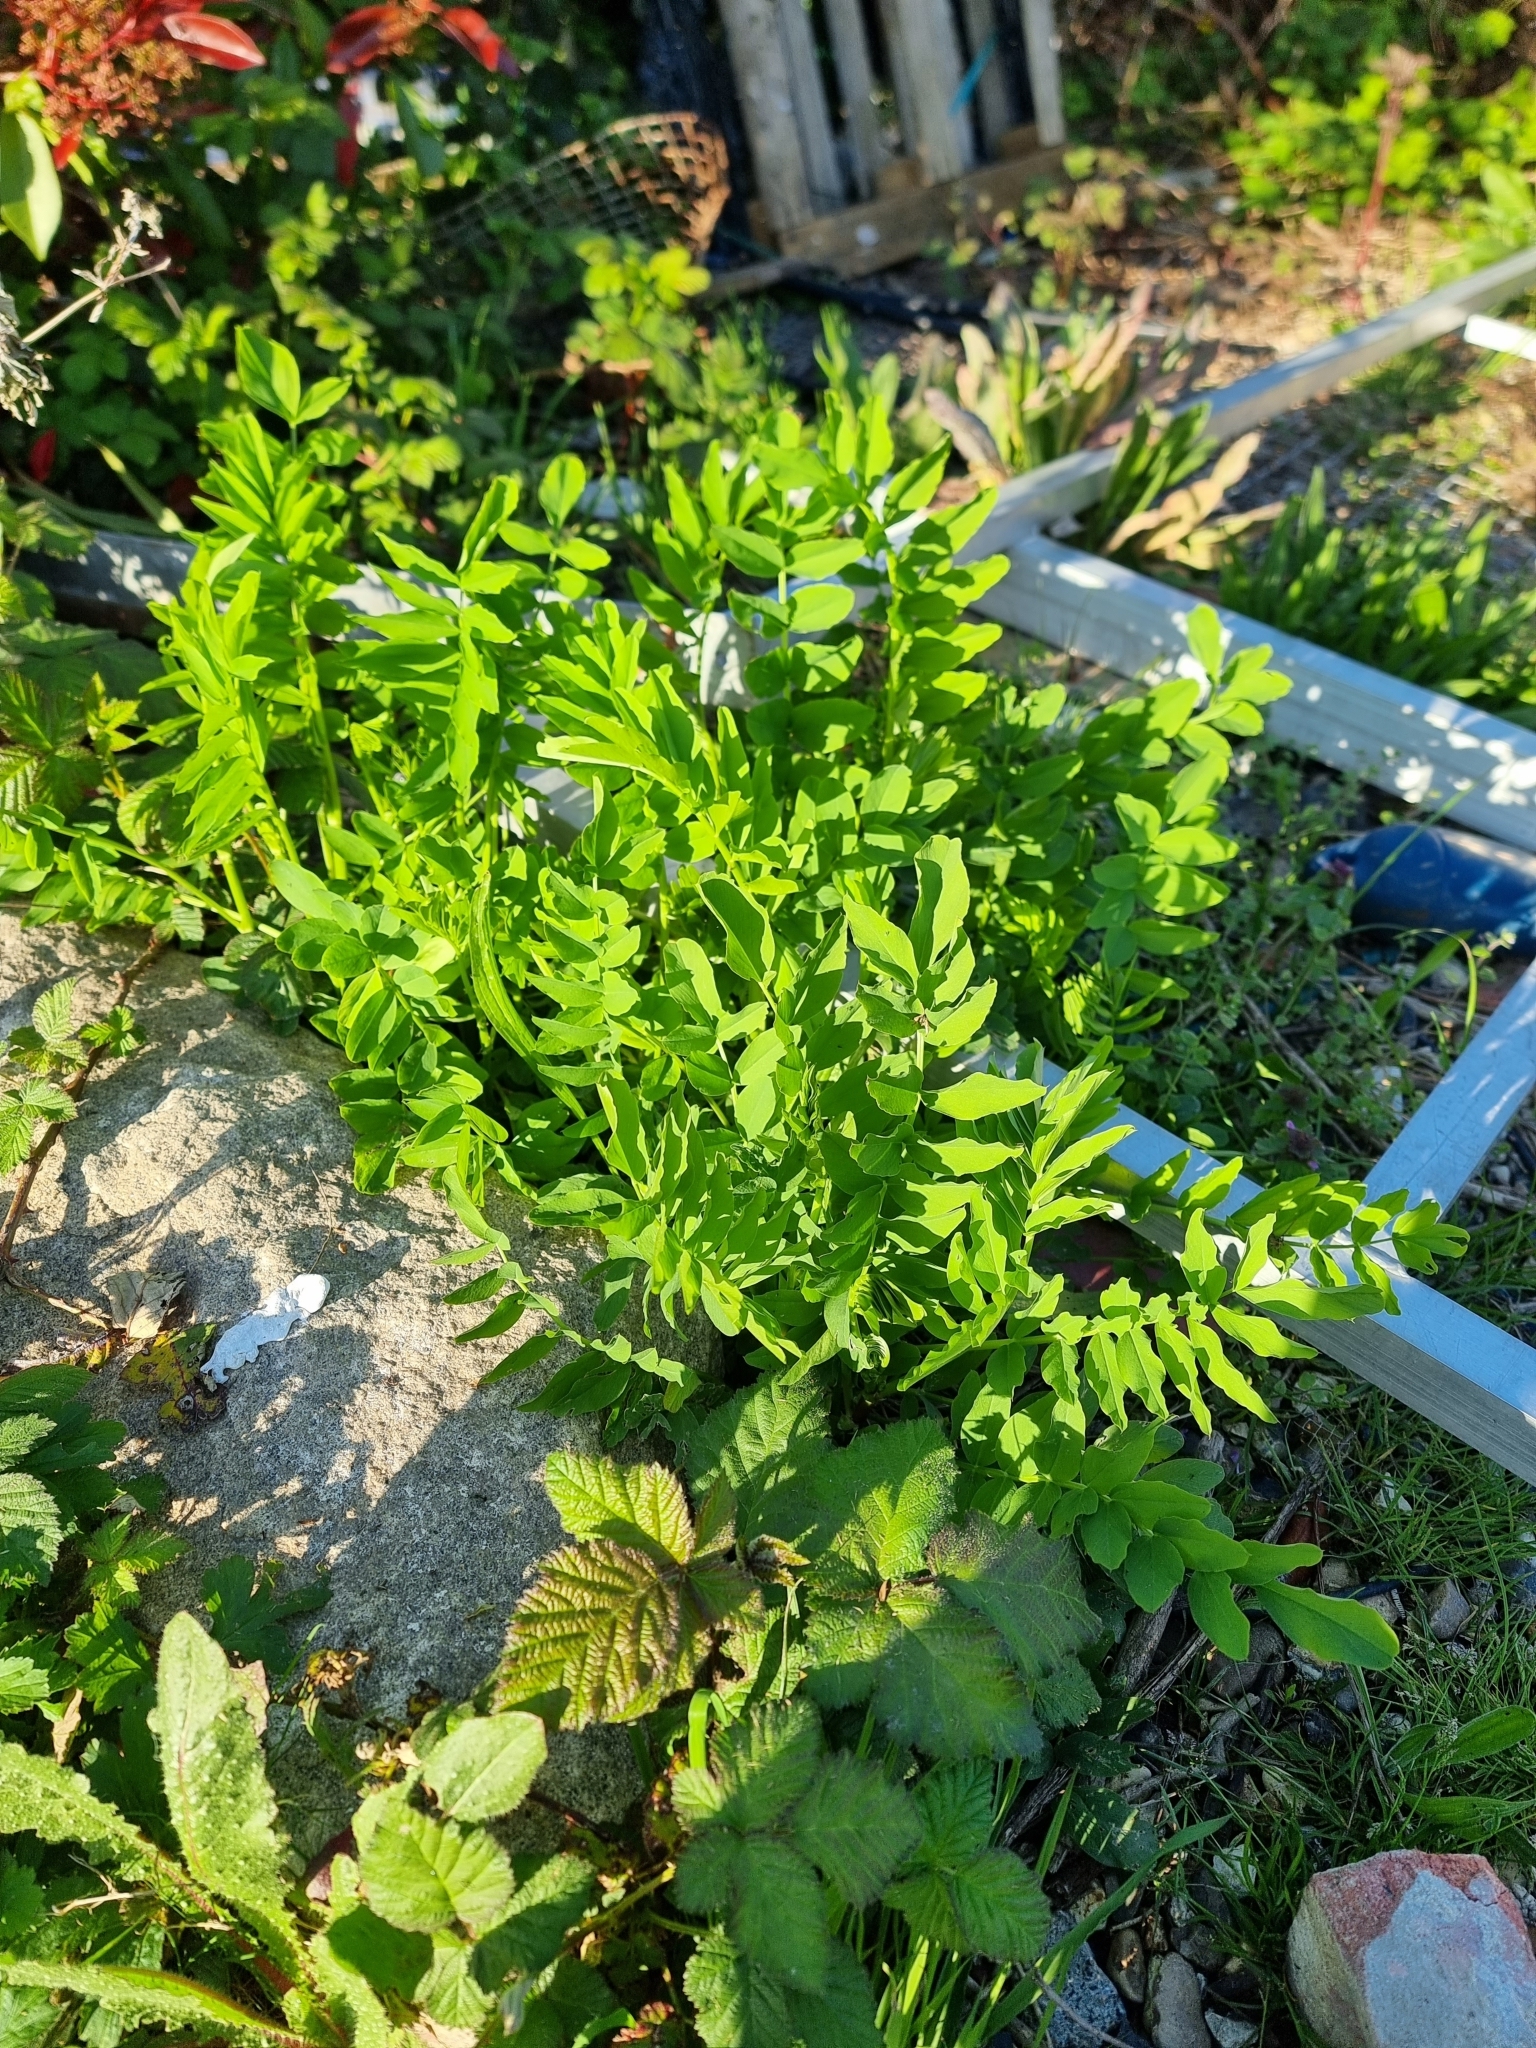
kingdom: Plantae
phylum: Tracheophyta
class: Magnoliopsida
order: Fabales
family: Fabaceae
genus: Galega
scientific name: Galega officinalis
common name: Goat's-rue
